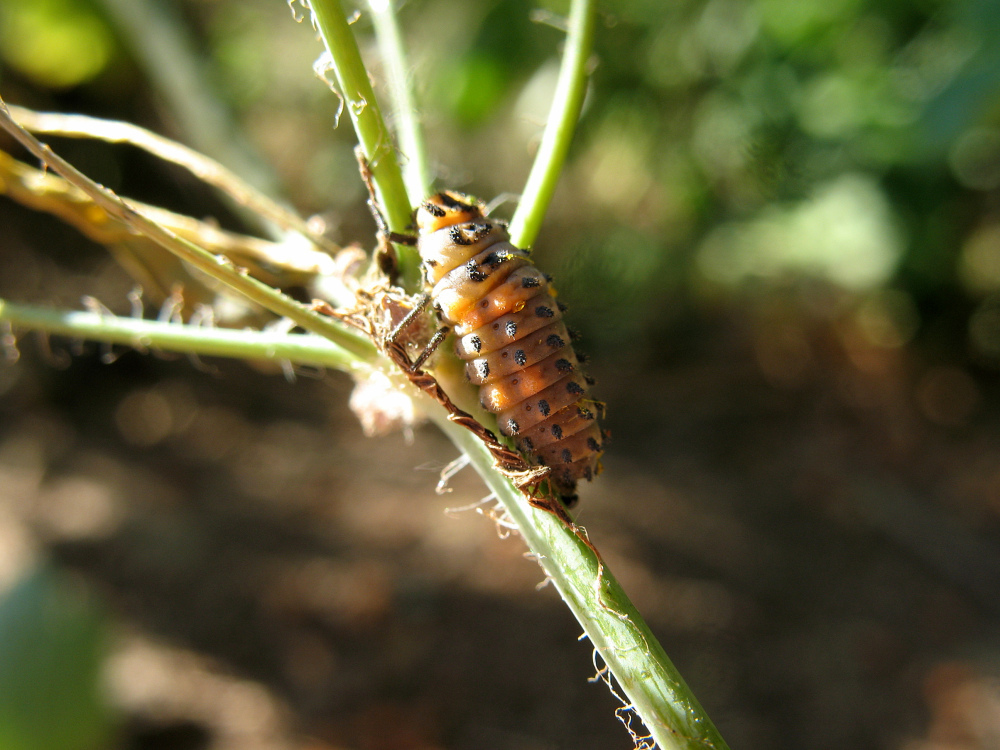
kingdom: Animalia
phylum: Arthropoda
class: Insecta
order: Coleoptera
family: Coccinellidae
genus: Coccinella
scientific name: Coccinella magnifica
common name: Scarce 7-spot ladybird
